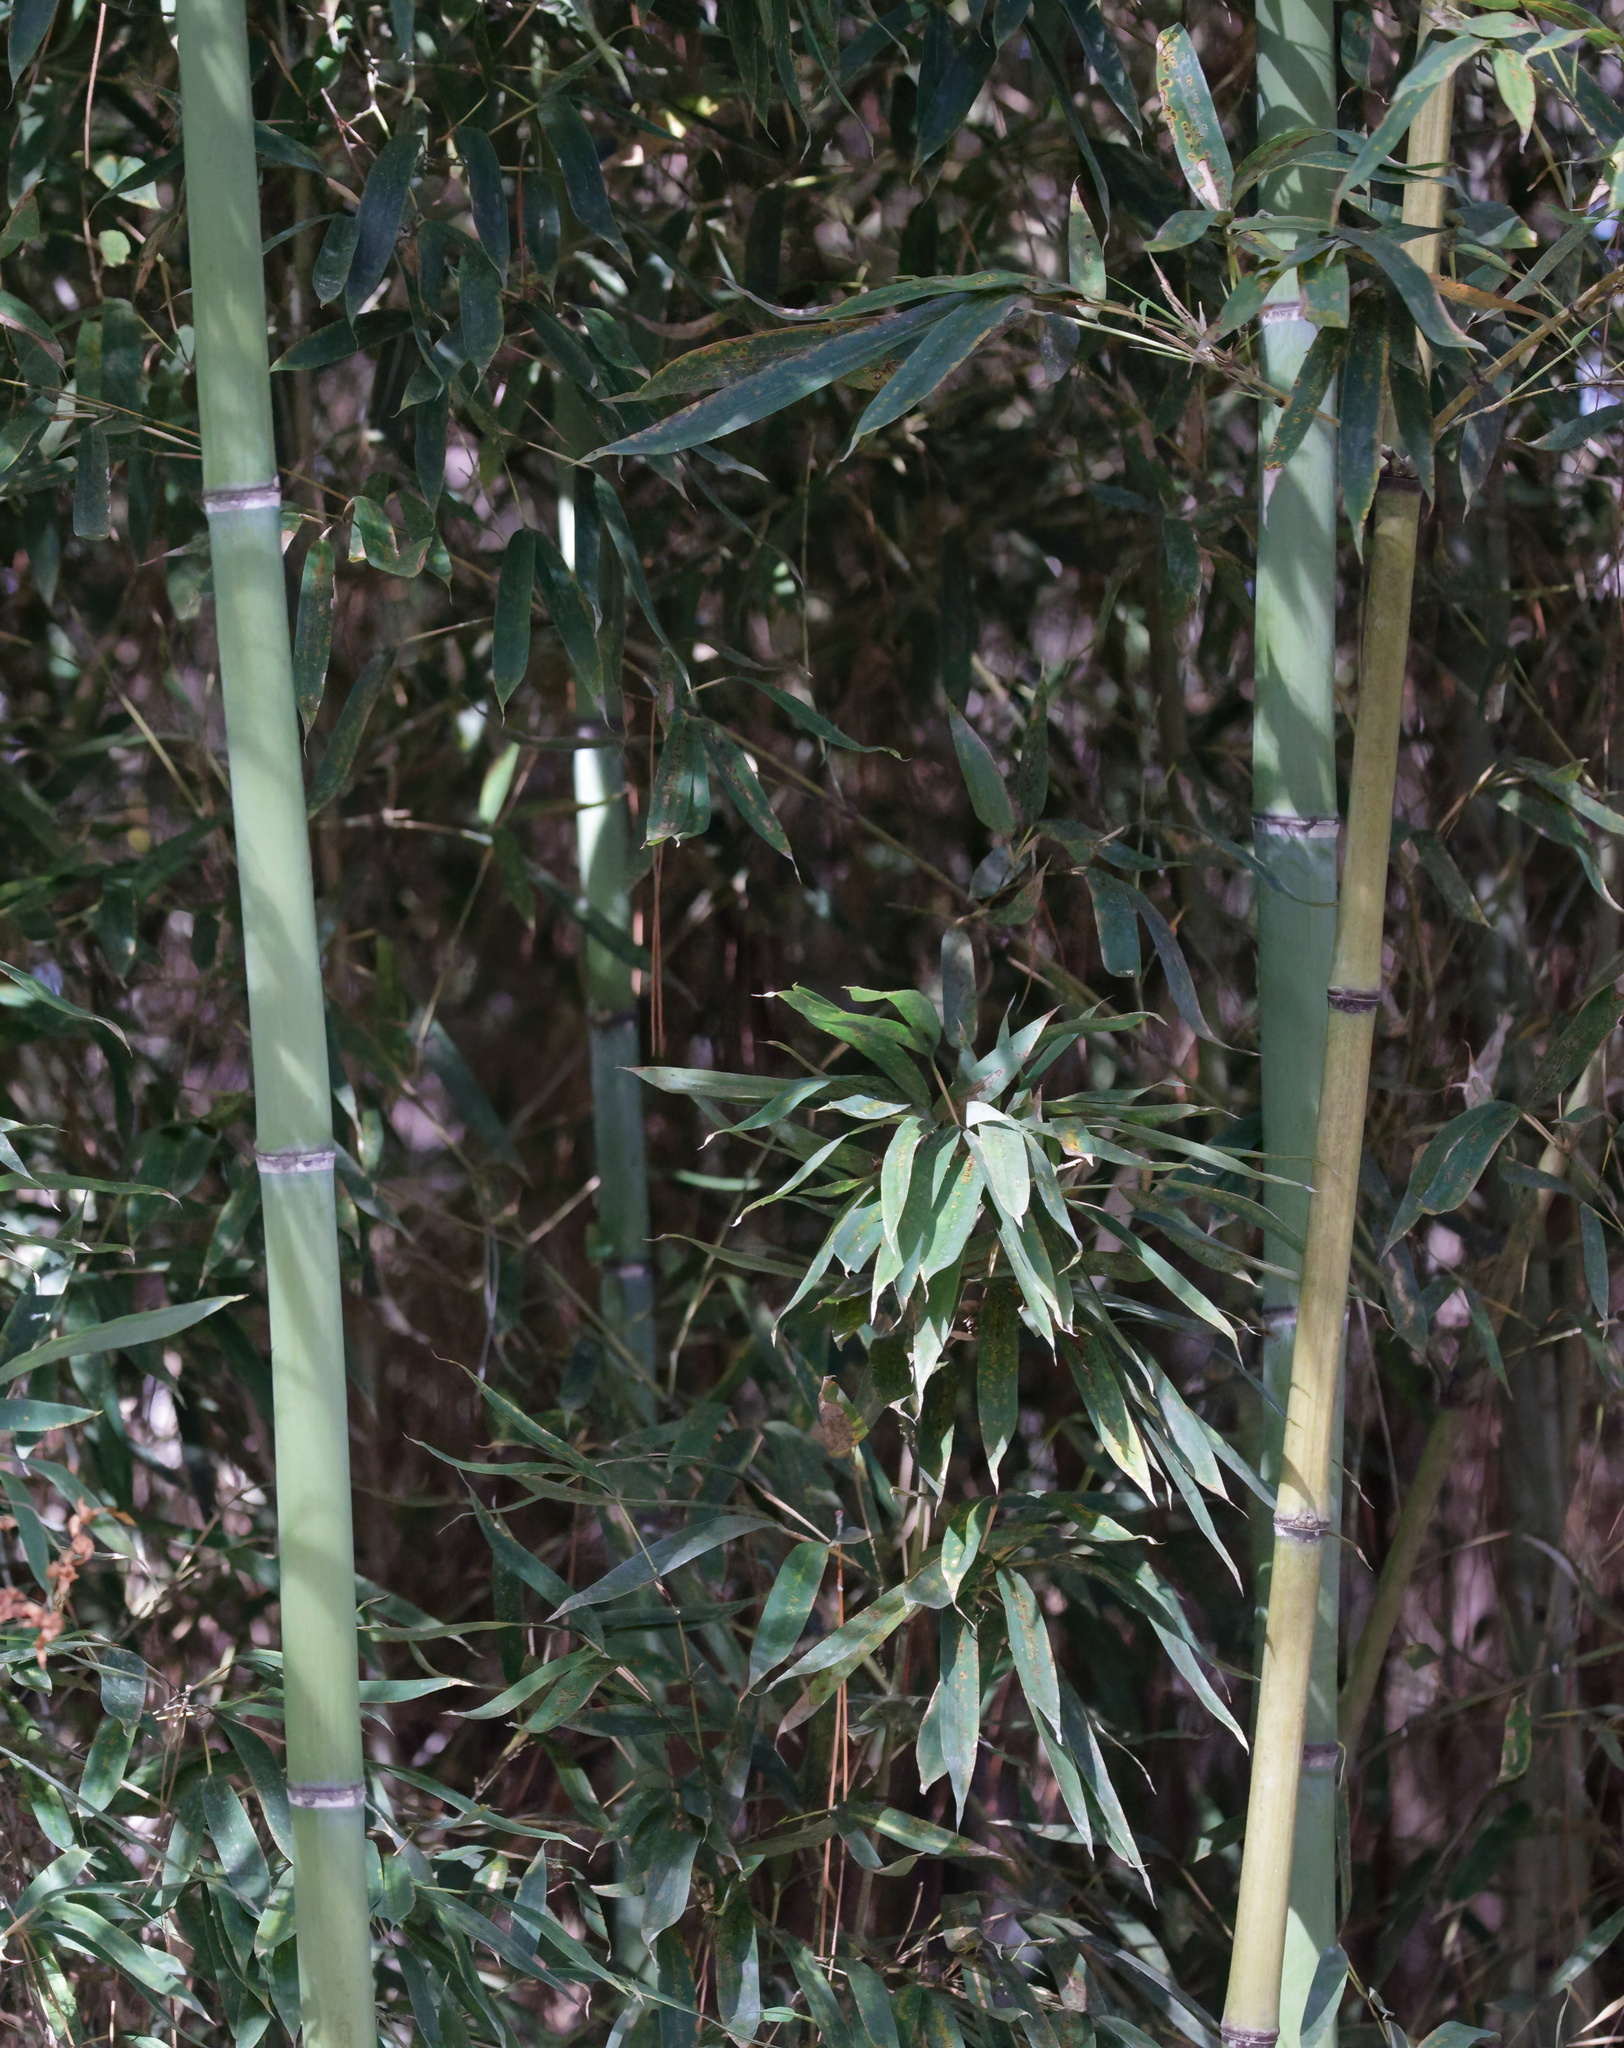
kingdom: Plantae
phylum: Tracheophyta
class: Liliopsida
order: Poales
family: Poaceae
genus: Phyllostachys
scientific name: Phyllostachys aurea
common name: Golden bamboo
